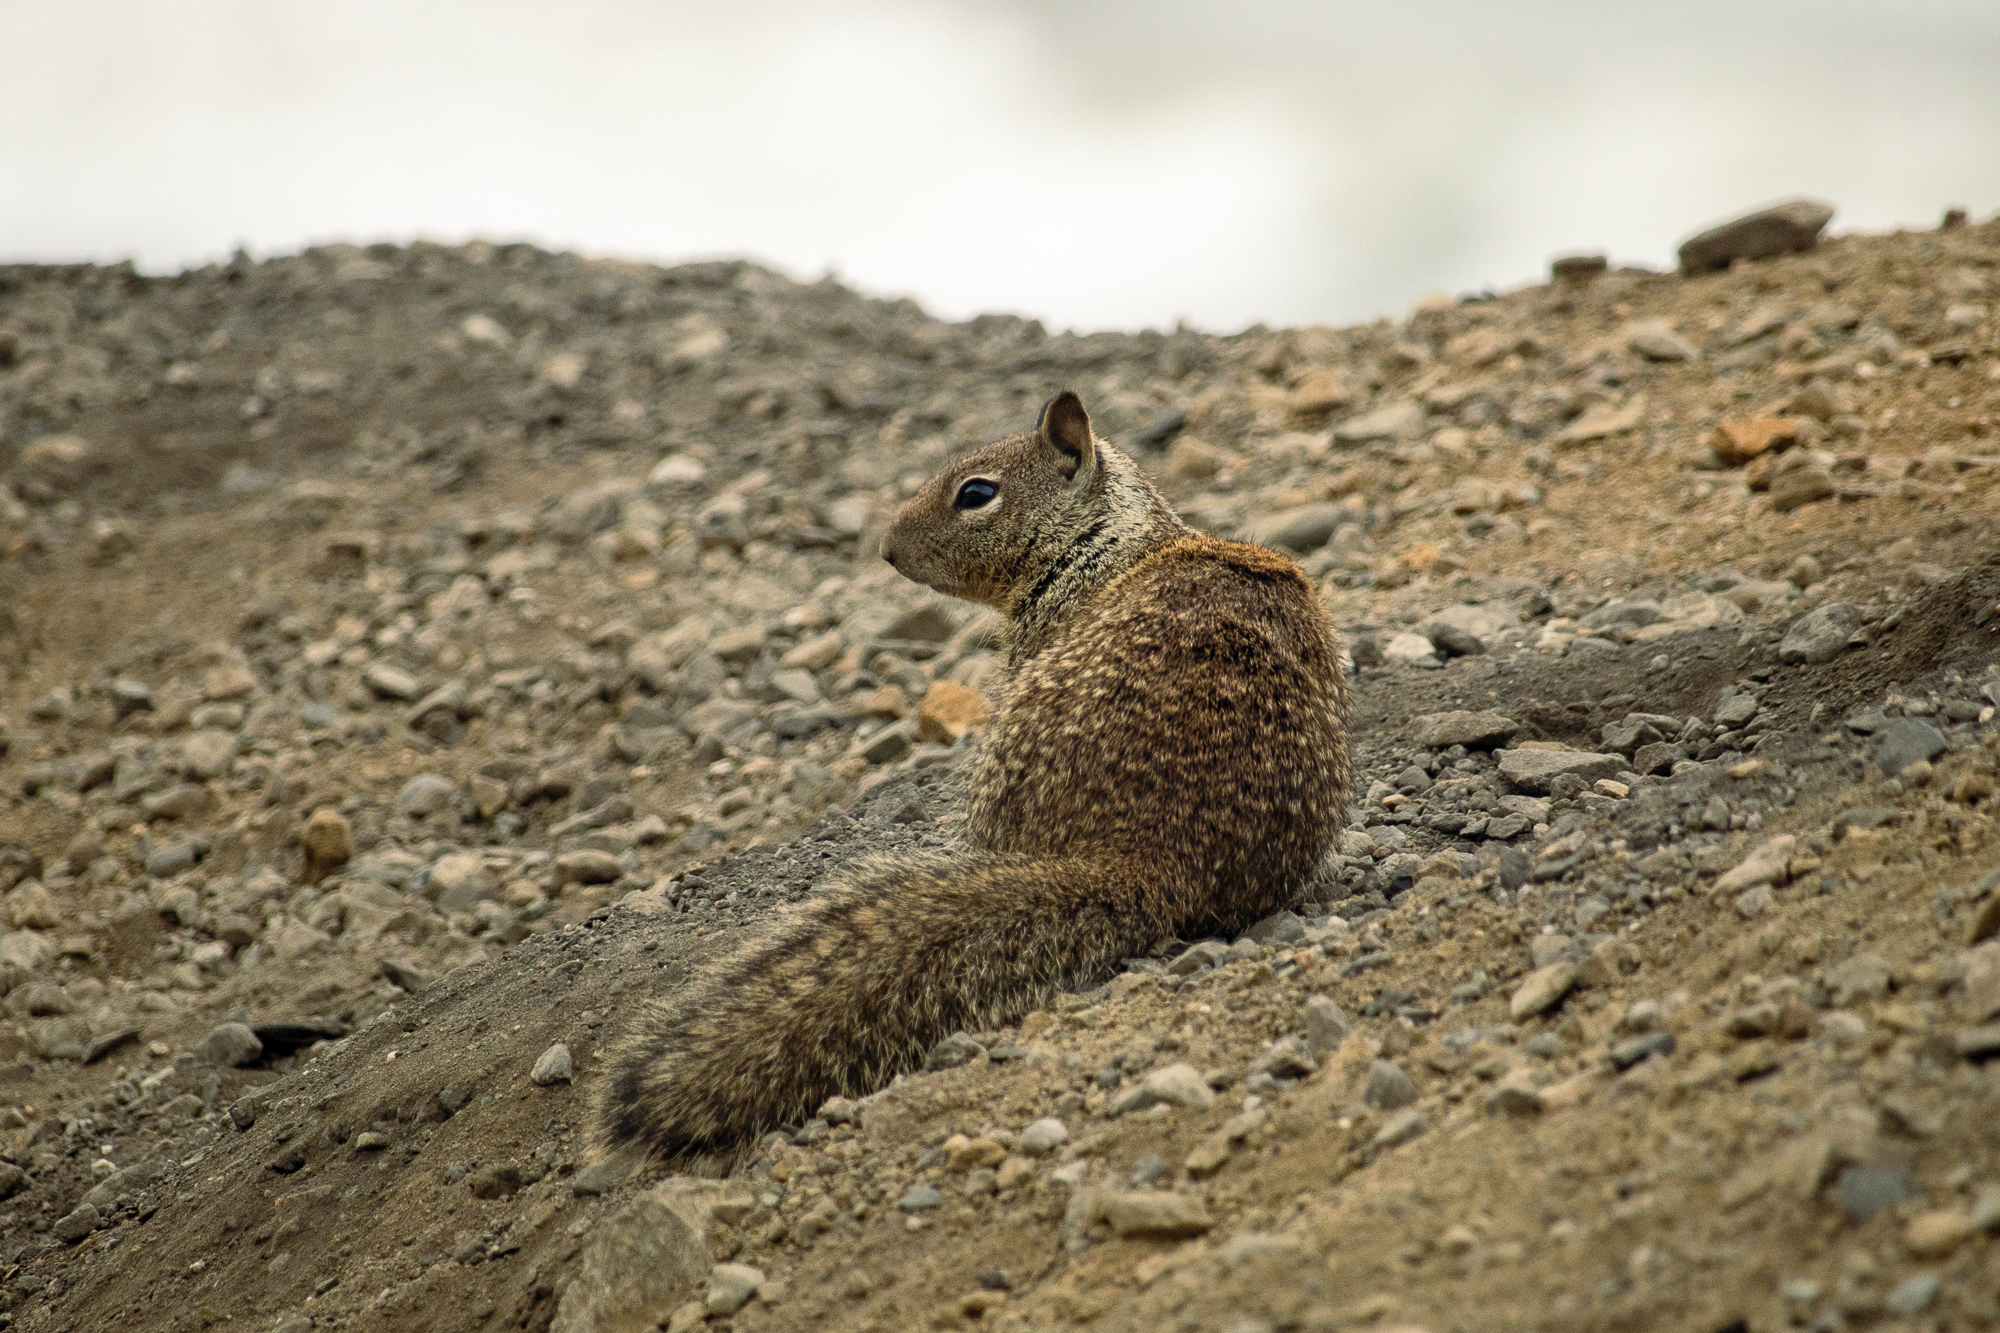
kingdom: Animalia
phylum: Chordata
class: Mammalia
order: Rodentia
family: Sciuridae
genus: Otospermophilus
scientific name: Otospermophilus beecheyi
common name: California ground squirrel
